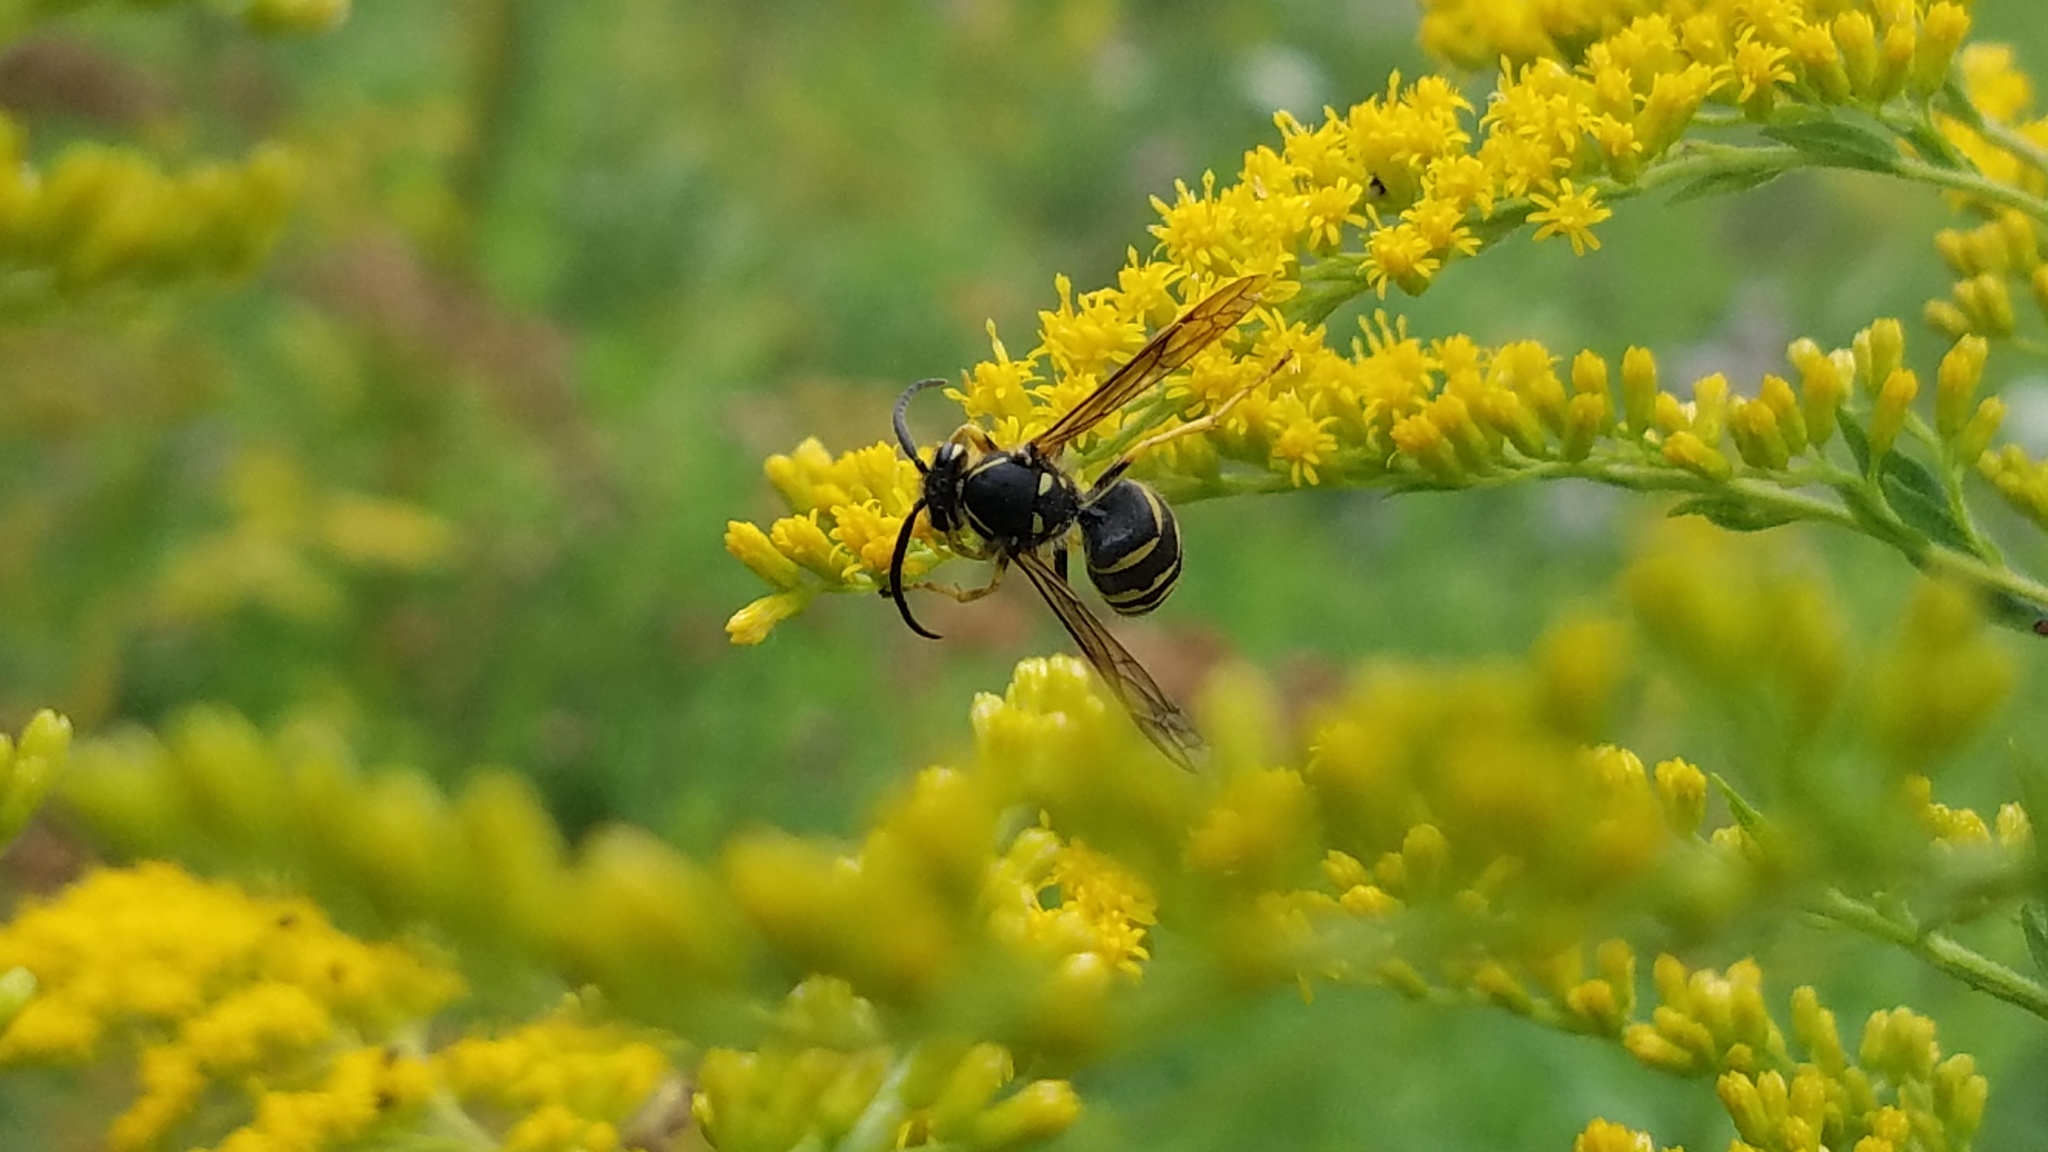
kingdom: Animalia
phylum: Arthropoda
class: Insecta
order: Hymenoptera
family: Vespidae
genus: Dolichovespula
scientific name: Dolichovespula arenaria
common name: Aerial yellowjacket
